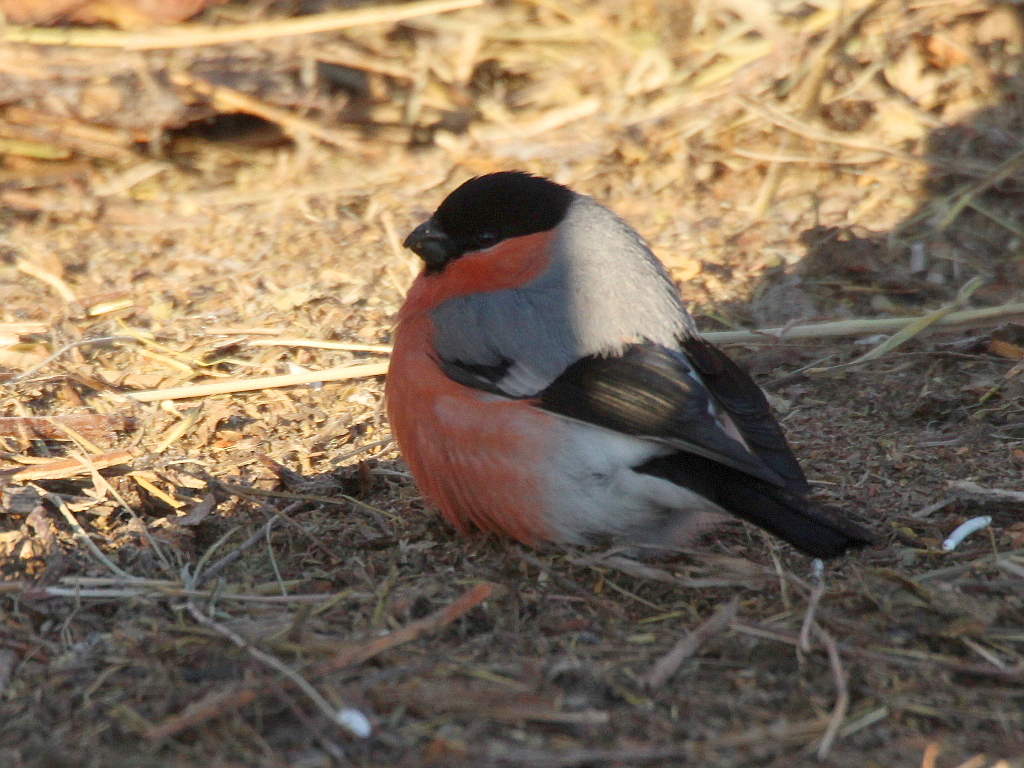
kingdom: Animalia
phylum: Chordata
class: Aves
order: Passeriformes
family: Fringillidae
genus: Pyrrhula
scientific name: Pyrrhula pyrrhula
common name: Eurasian bullfinch
